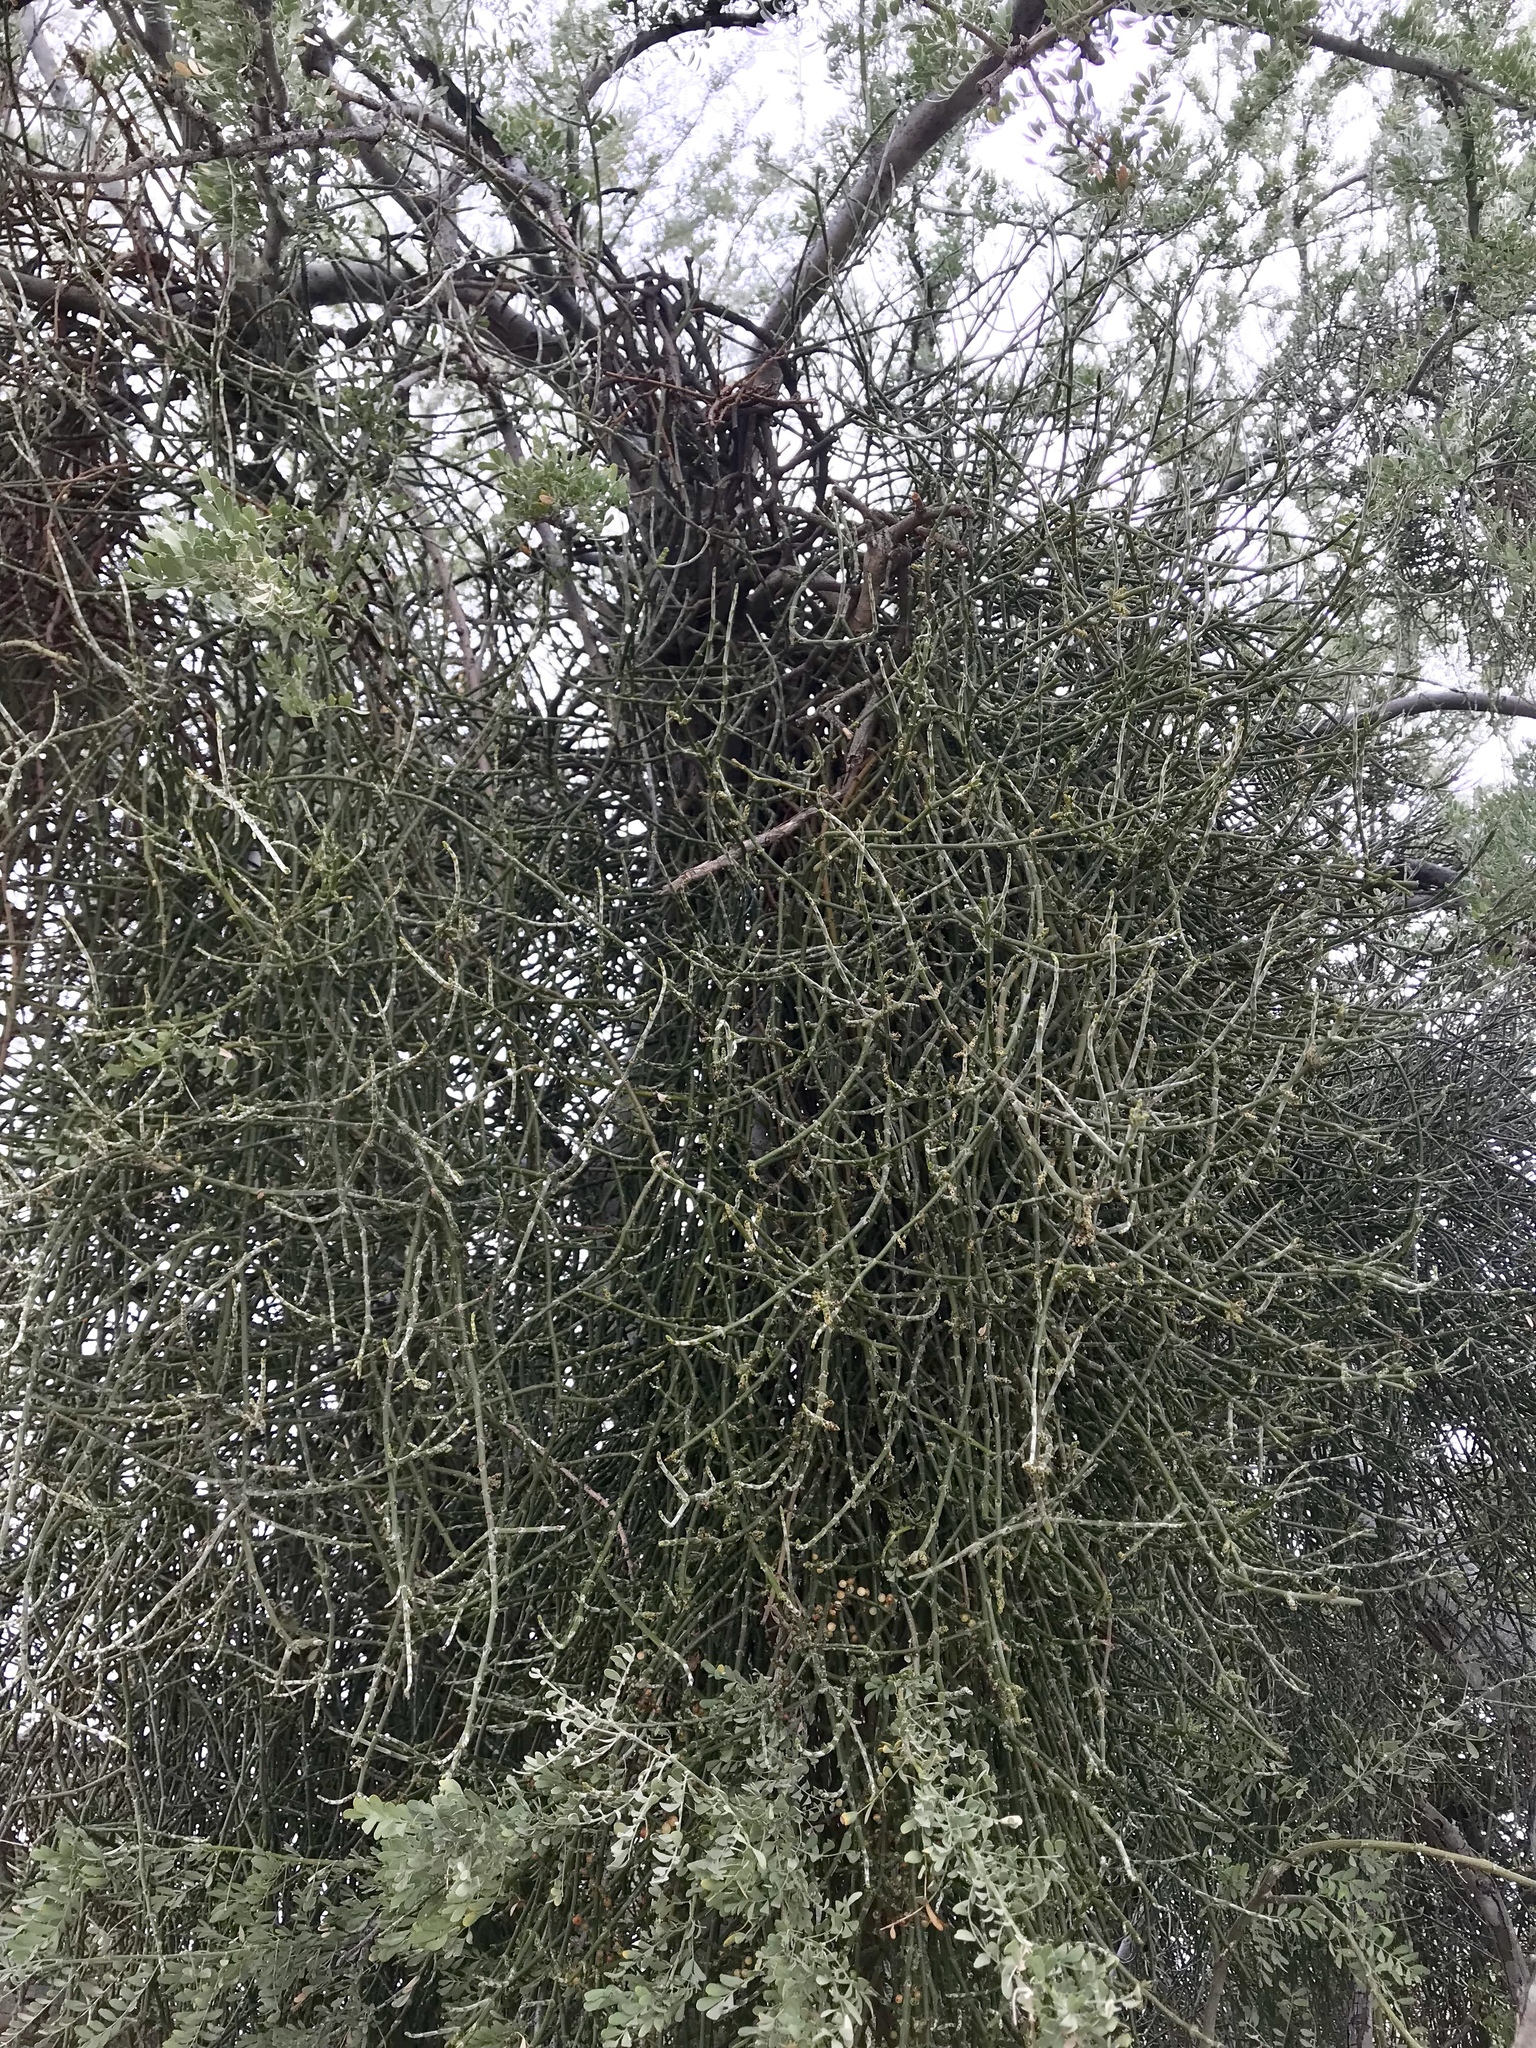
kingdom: Plantae
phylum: Tracheophyta
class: Magnoliopsida
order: Santalales
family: Viscaceae
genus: Phoradendron
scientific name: Phoradendron californicum
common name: Acacia mistletoe
